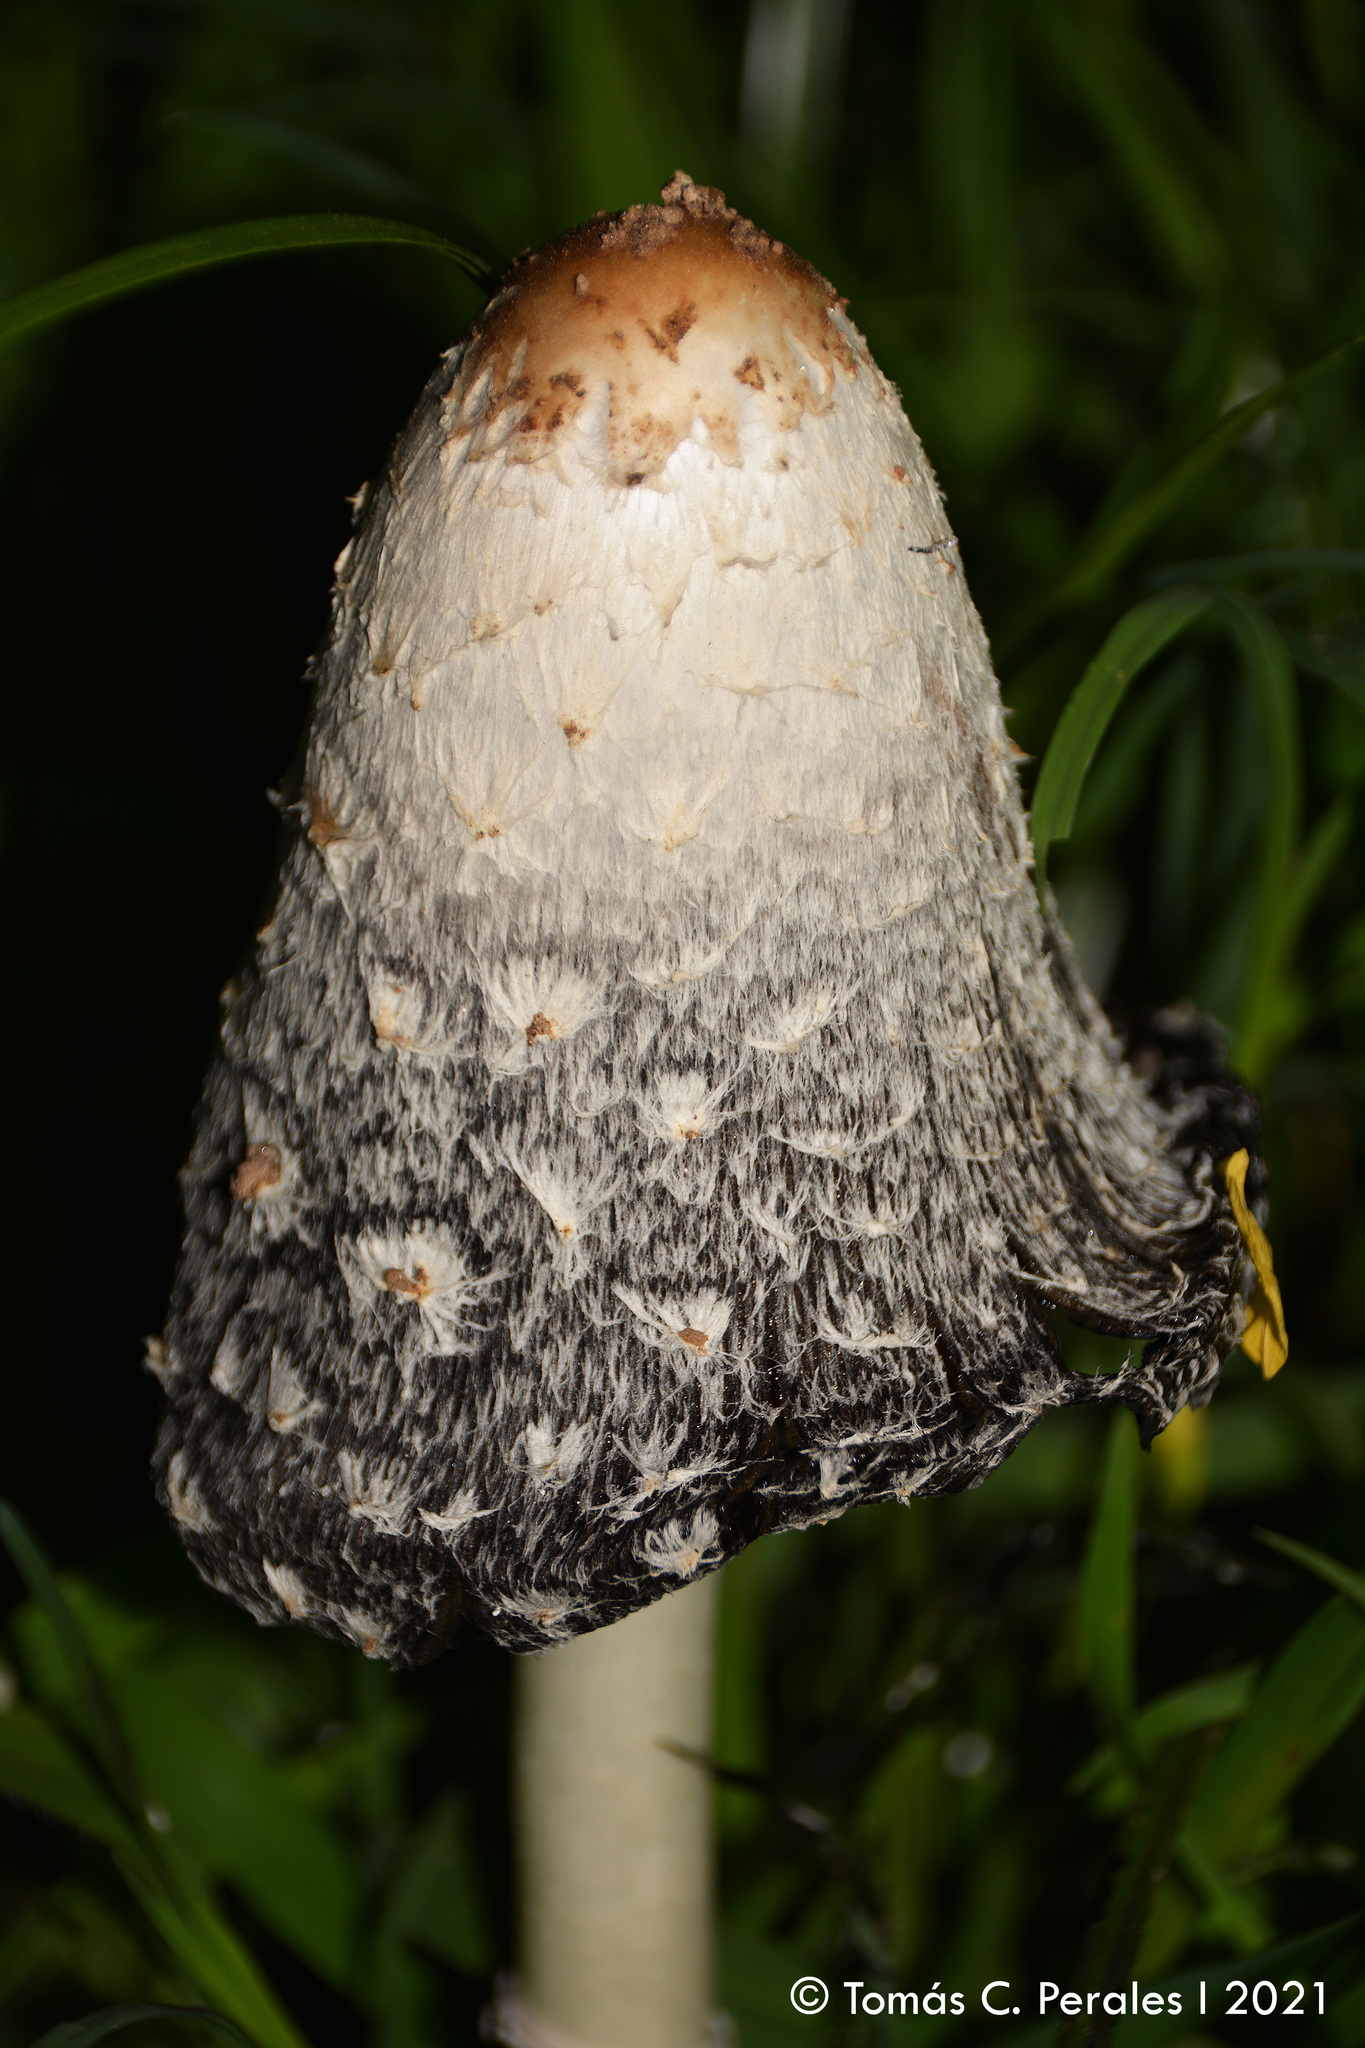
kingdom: Fungi
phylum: Basidiomycota
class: Agaricomycetes
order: Agaricales
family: Agaricaceae
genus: Coprinus
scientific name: Coprinus comatus
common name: Lawyer's wig
